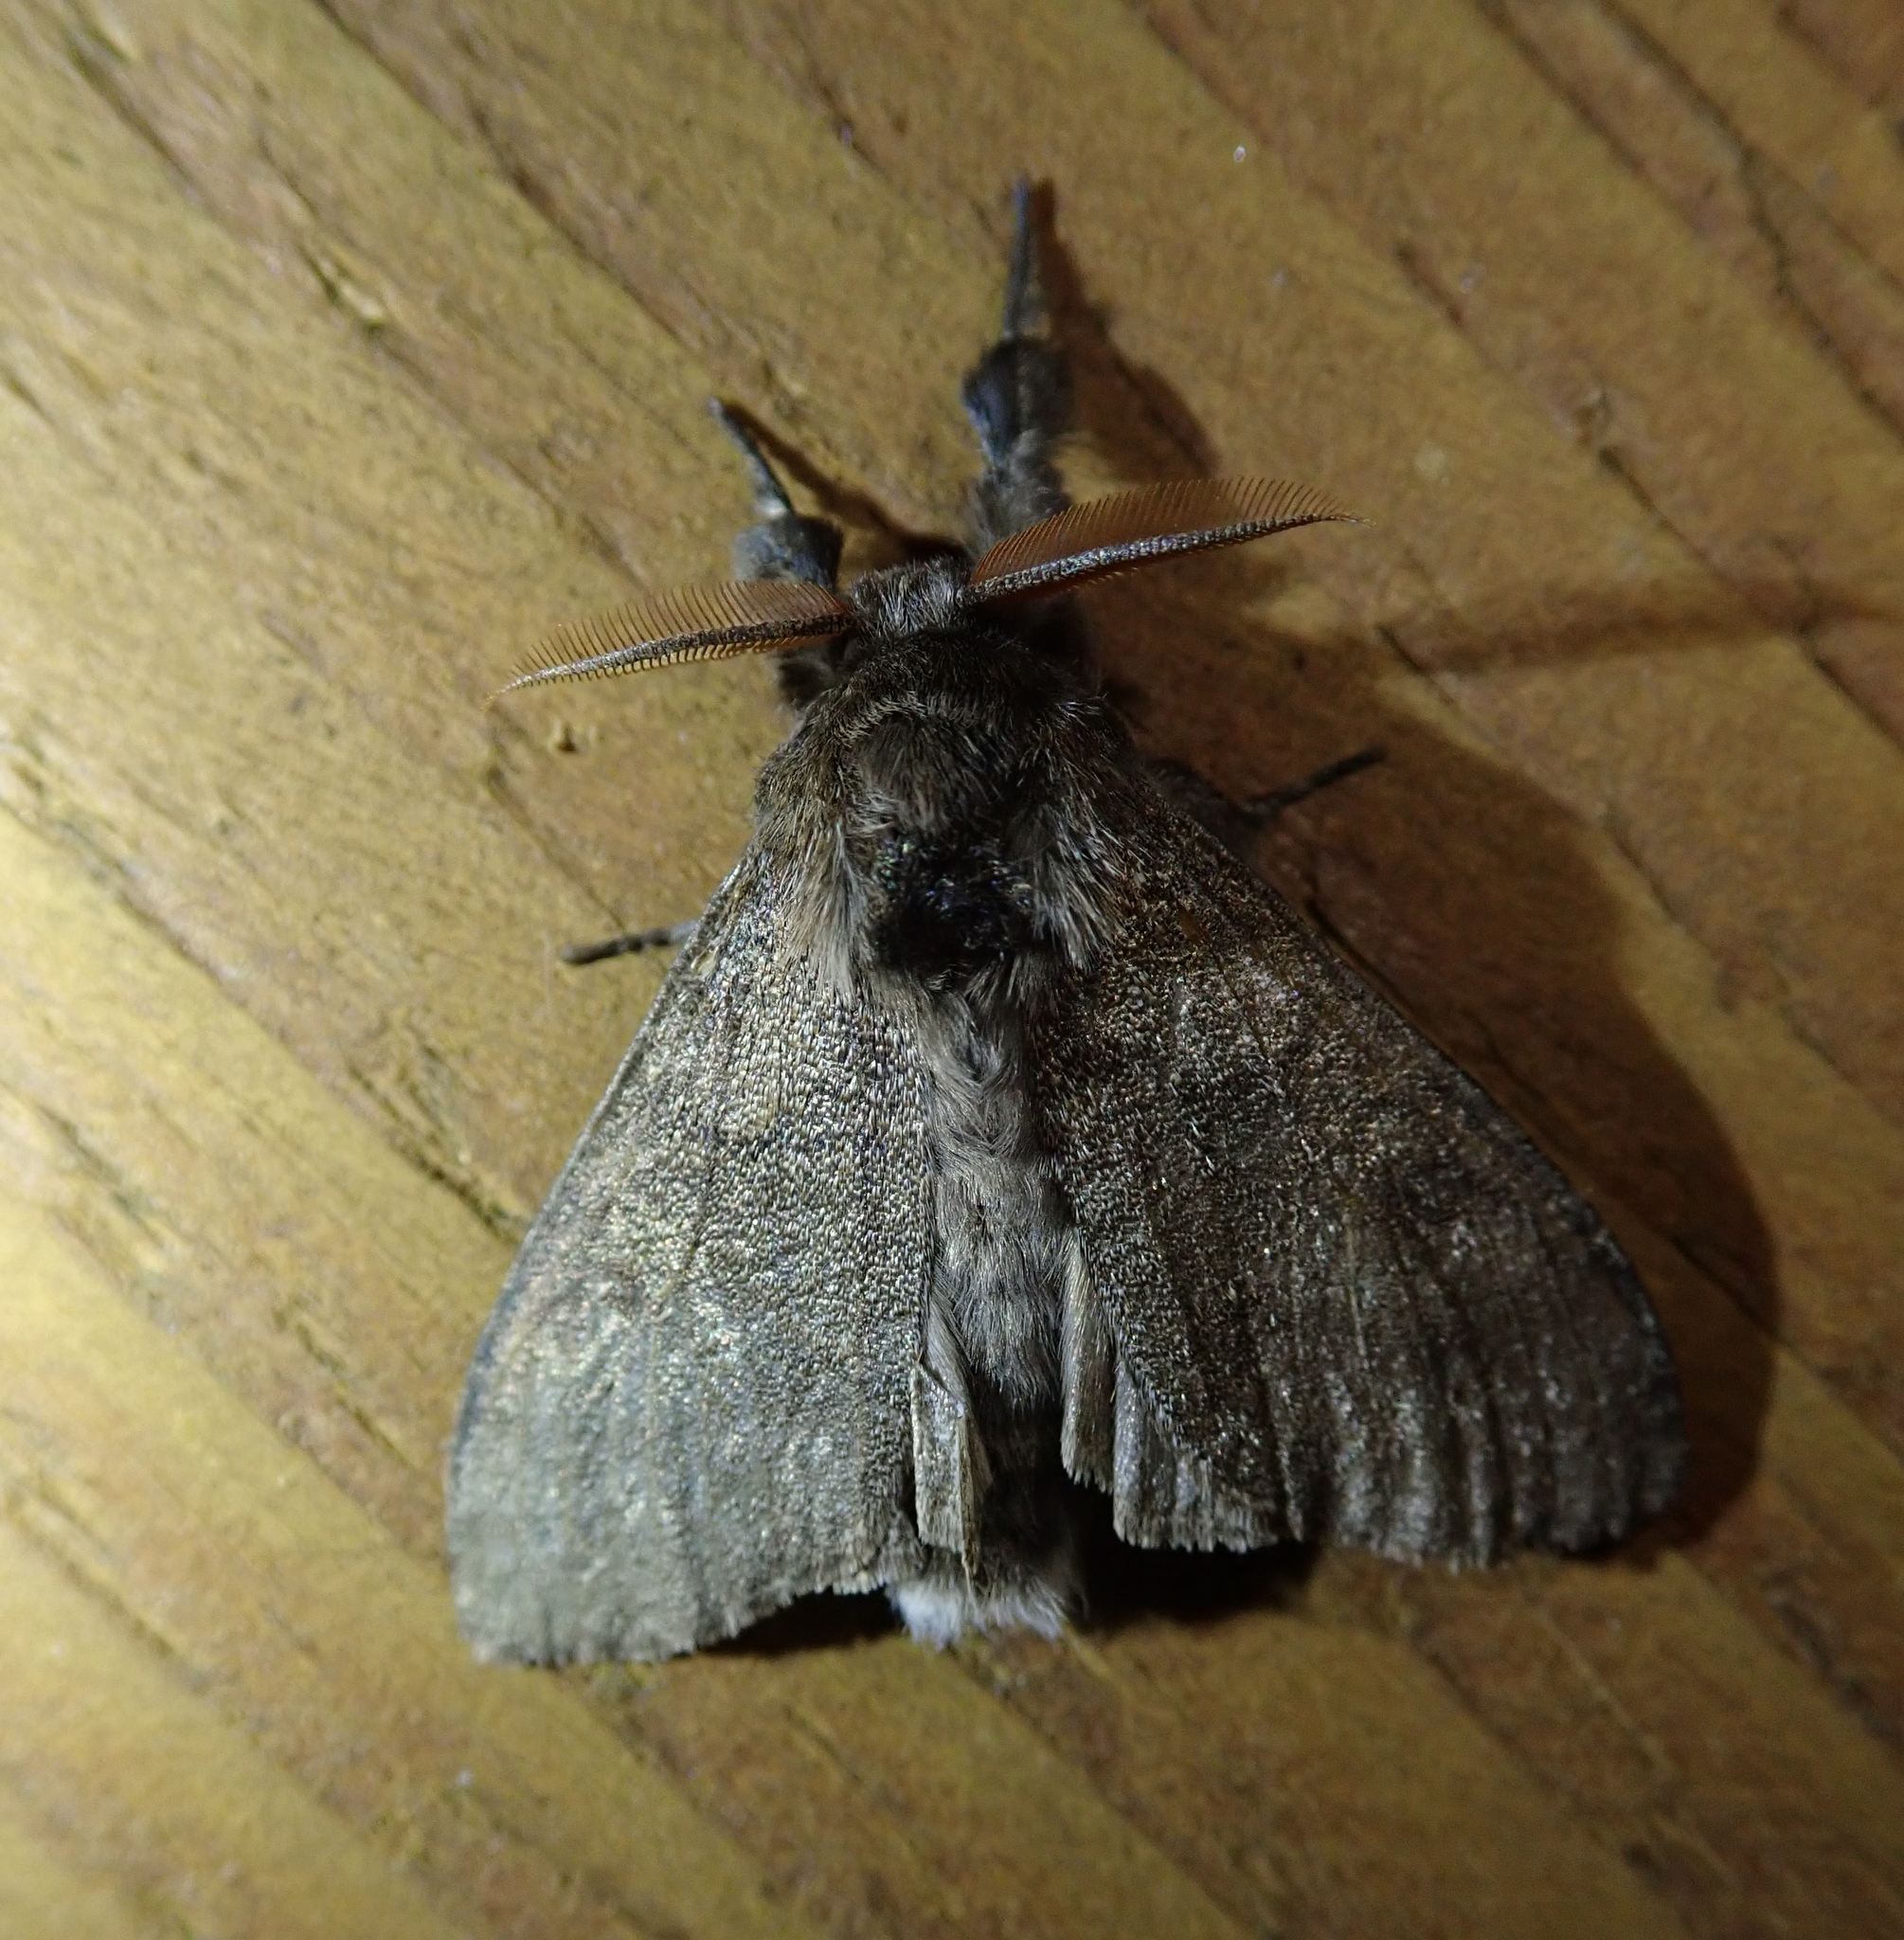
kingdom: Animalia
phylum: Arthropoda
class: Insecta
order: Lepidoptera
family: Erebidae
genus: Calliteara
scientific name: Calliteara pudibunda
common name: Pale tussock
